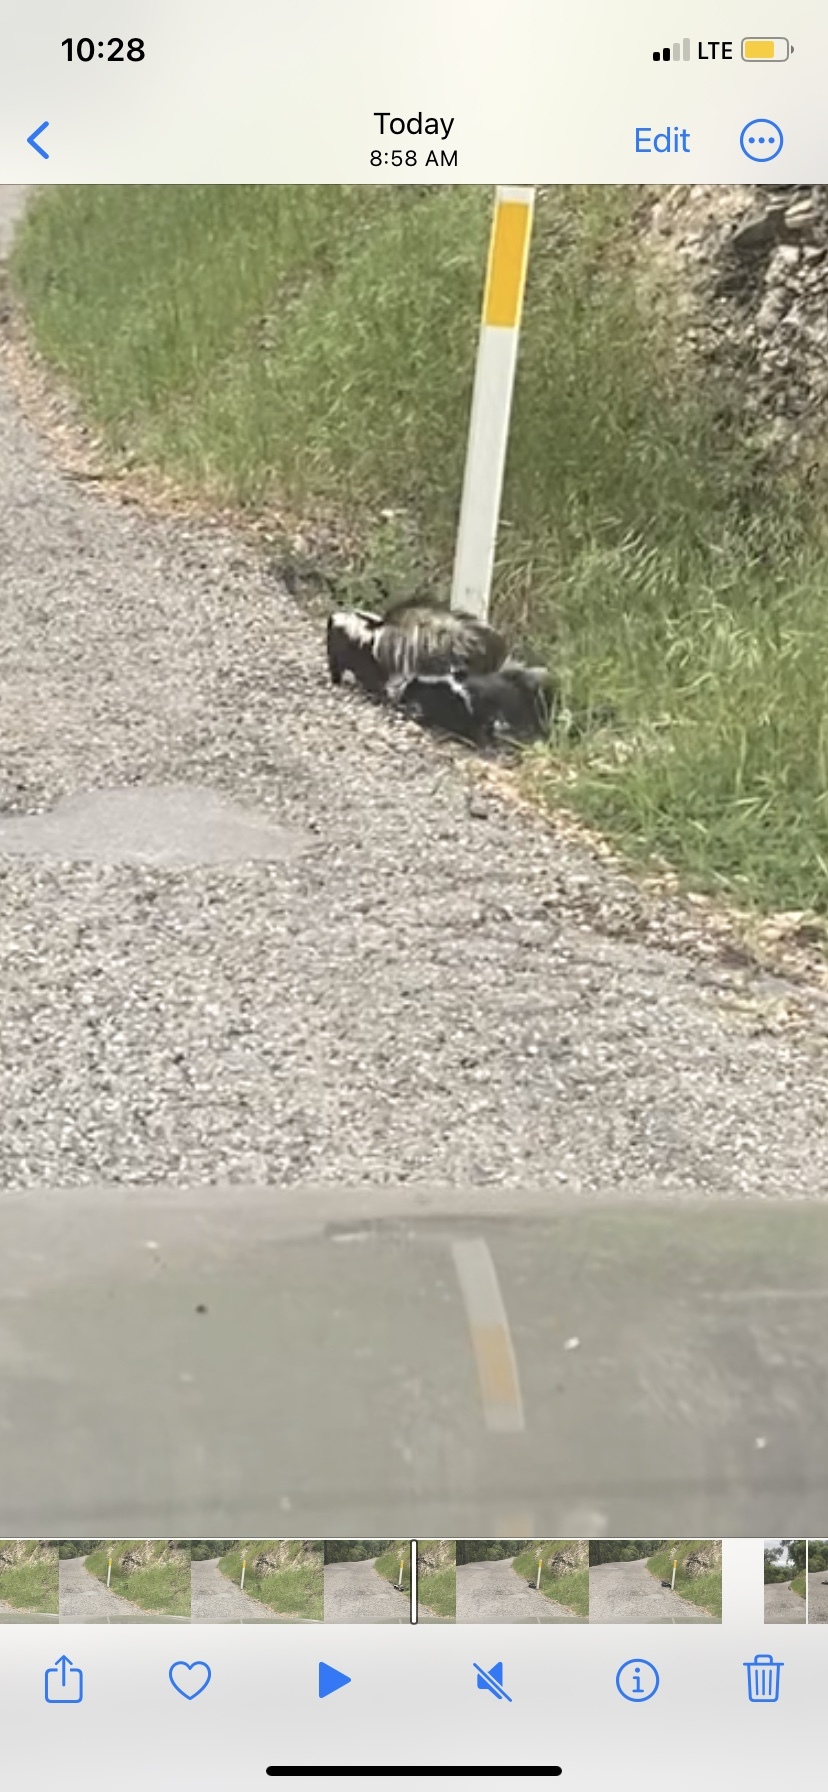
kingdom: Animalia
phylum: Chordata
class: Mammalia
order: Carnivora
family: Mephitidae
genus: Mephitis
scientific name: Mephitis mephitis
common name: Striped skunk
